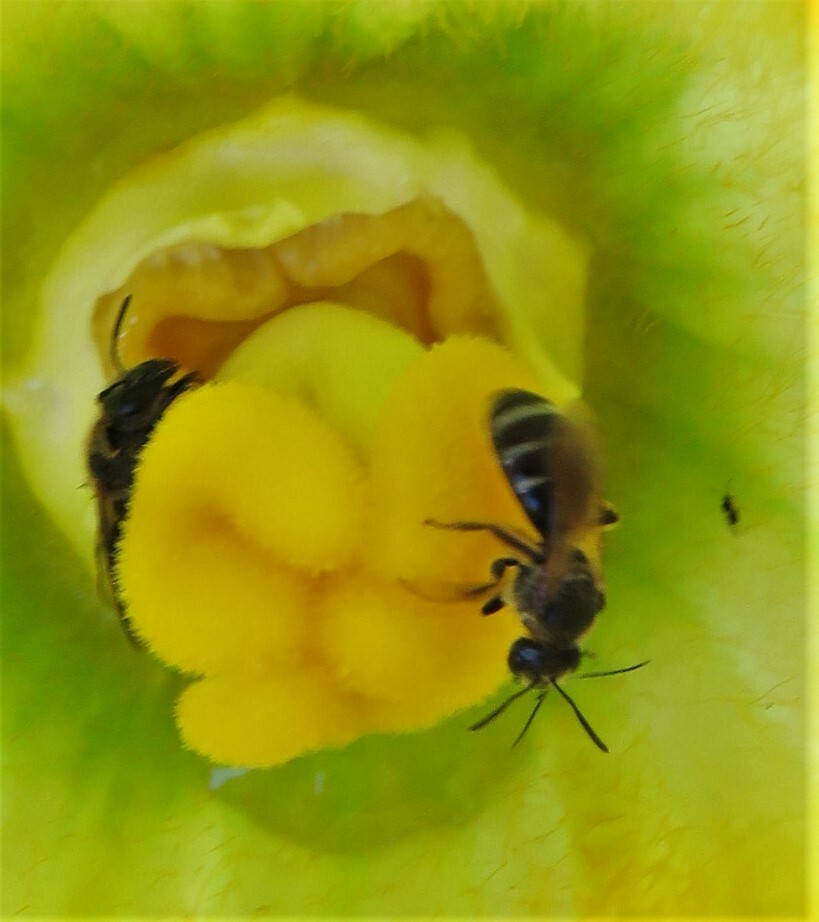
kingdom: Animalia
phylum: Arthropoda
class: Insecta
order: Hymenoptera
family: Halictidae
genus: Lasioglossum
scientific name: Lasioglossum
